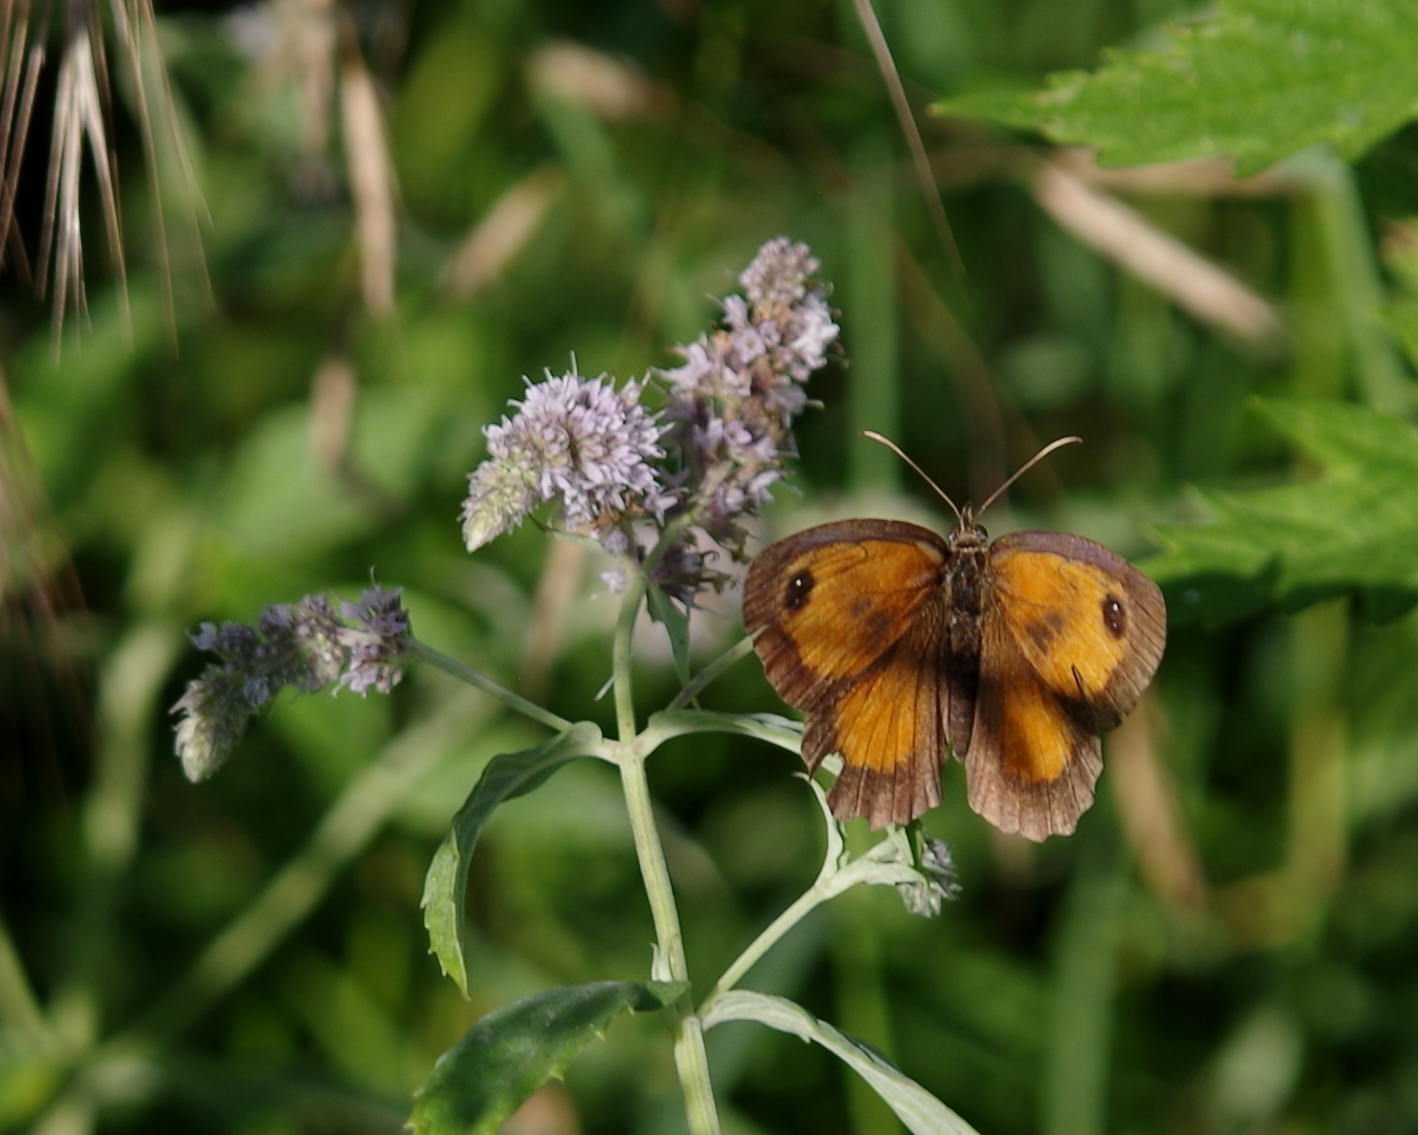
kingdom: Animalia
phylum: Arthropoda
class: Insecta
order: Lepidoptera
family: Nymphalidae
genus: Pyronia
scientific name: Pyronia tithonus
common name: Gatekeeper
